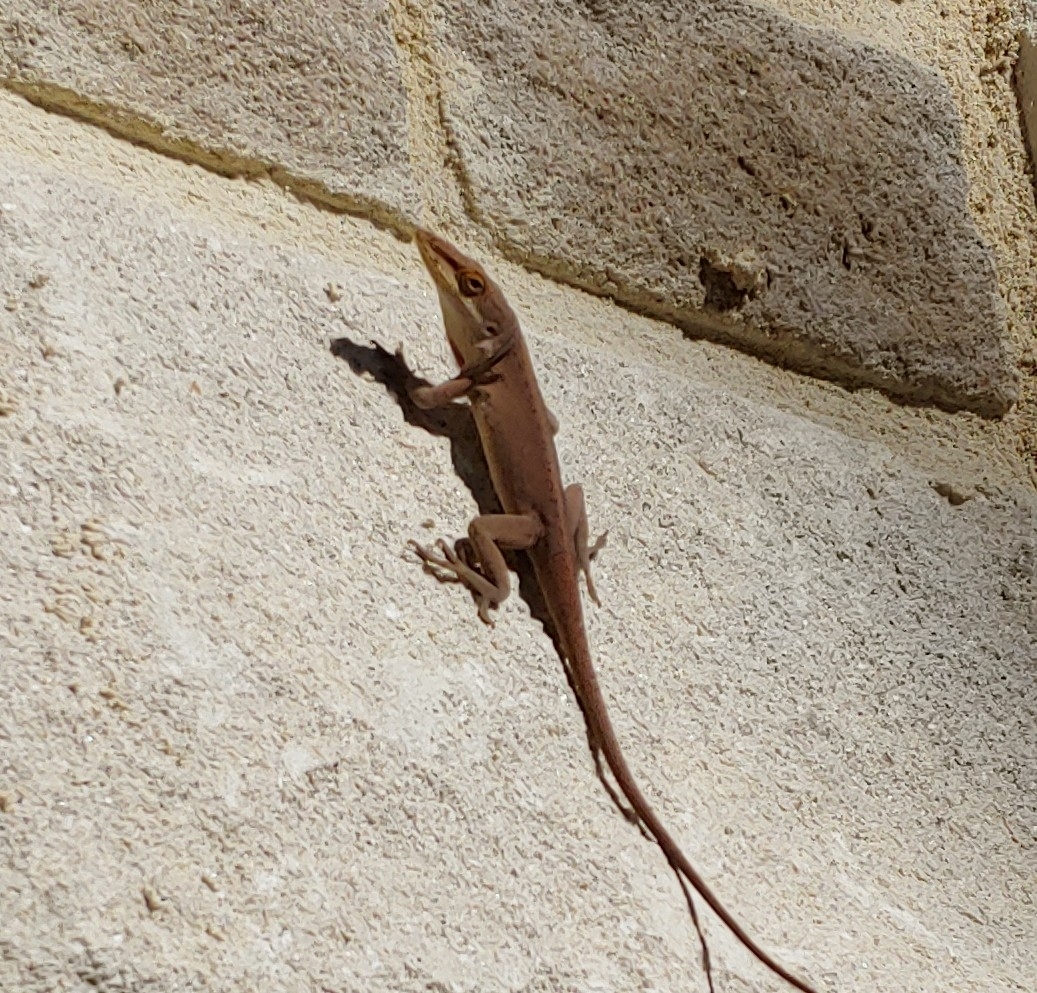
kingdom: Animalia
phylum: Chordata
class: Squamata
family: Dactyloidae
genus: Anolis
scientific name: Anolis carolinensis
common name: Green anole
